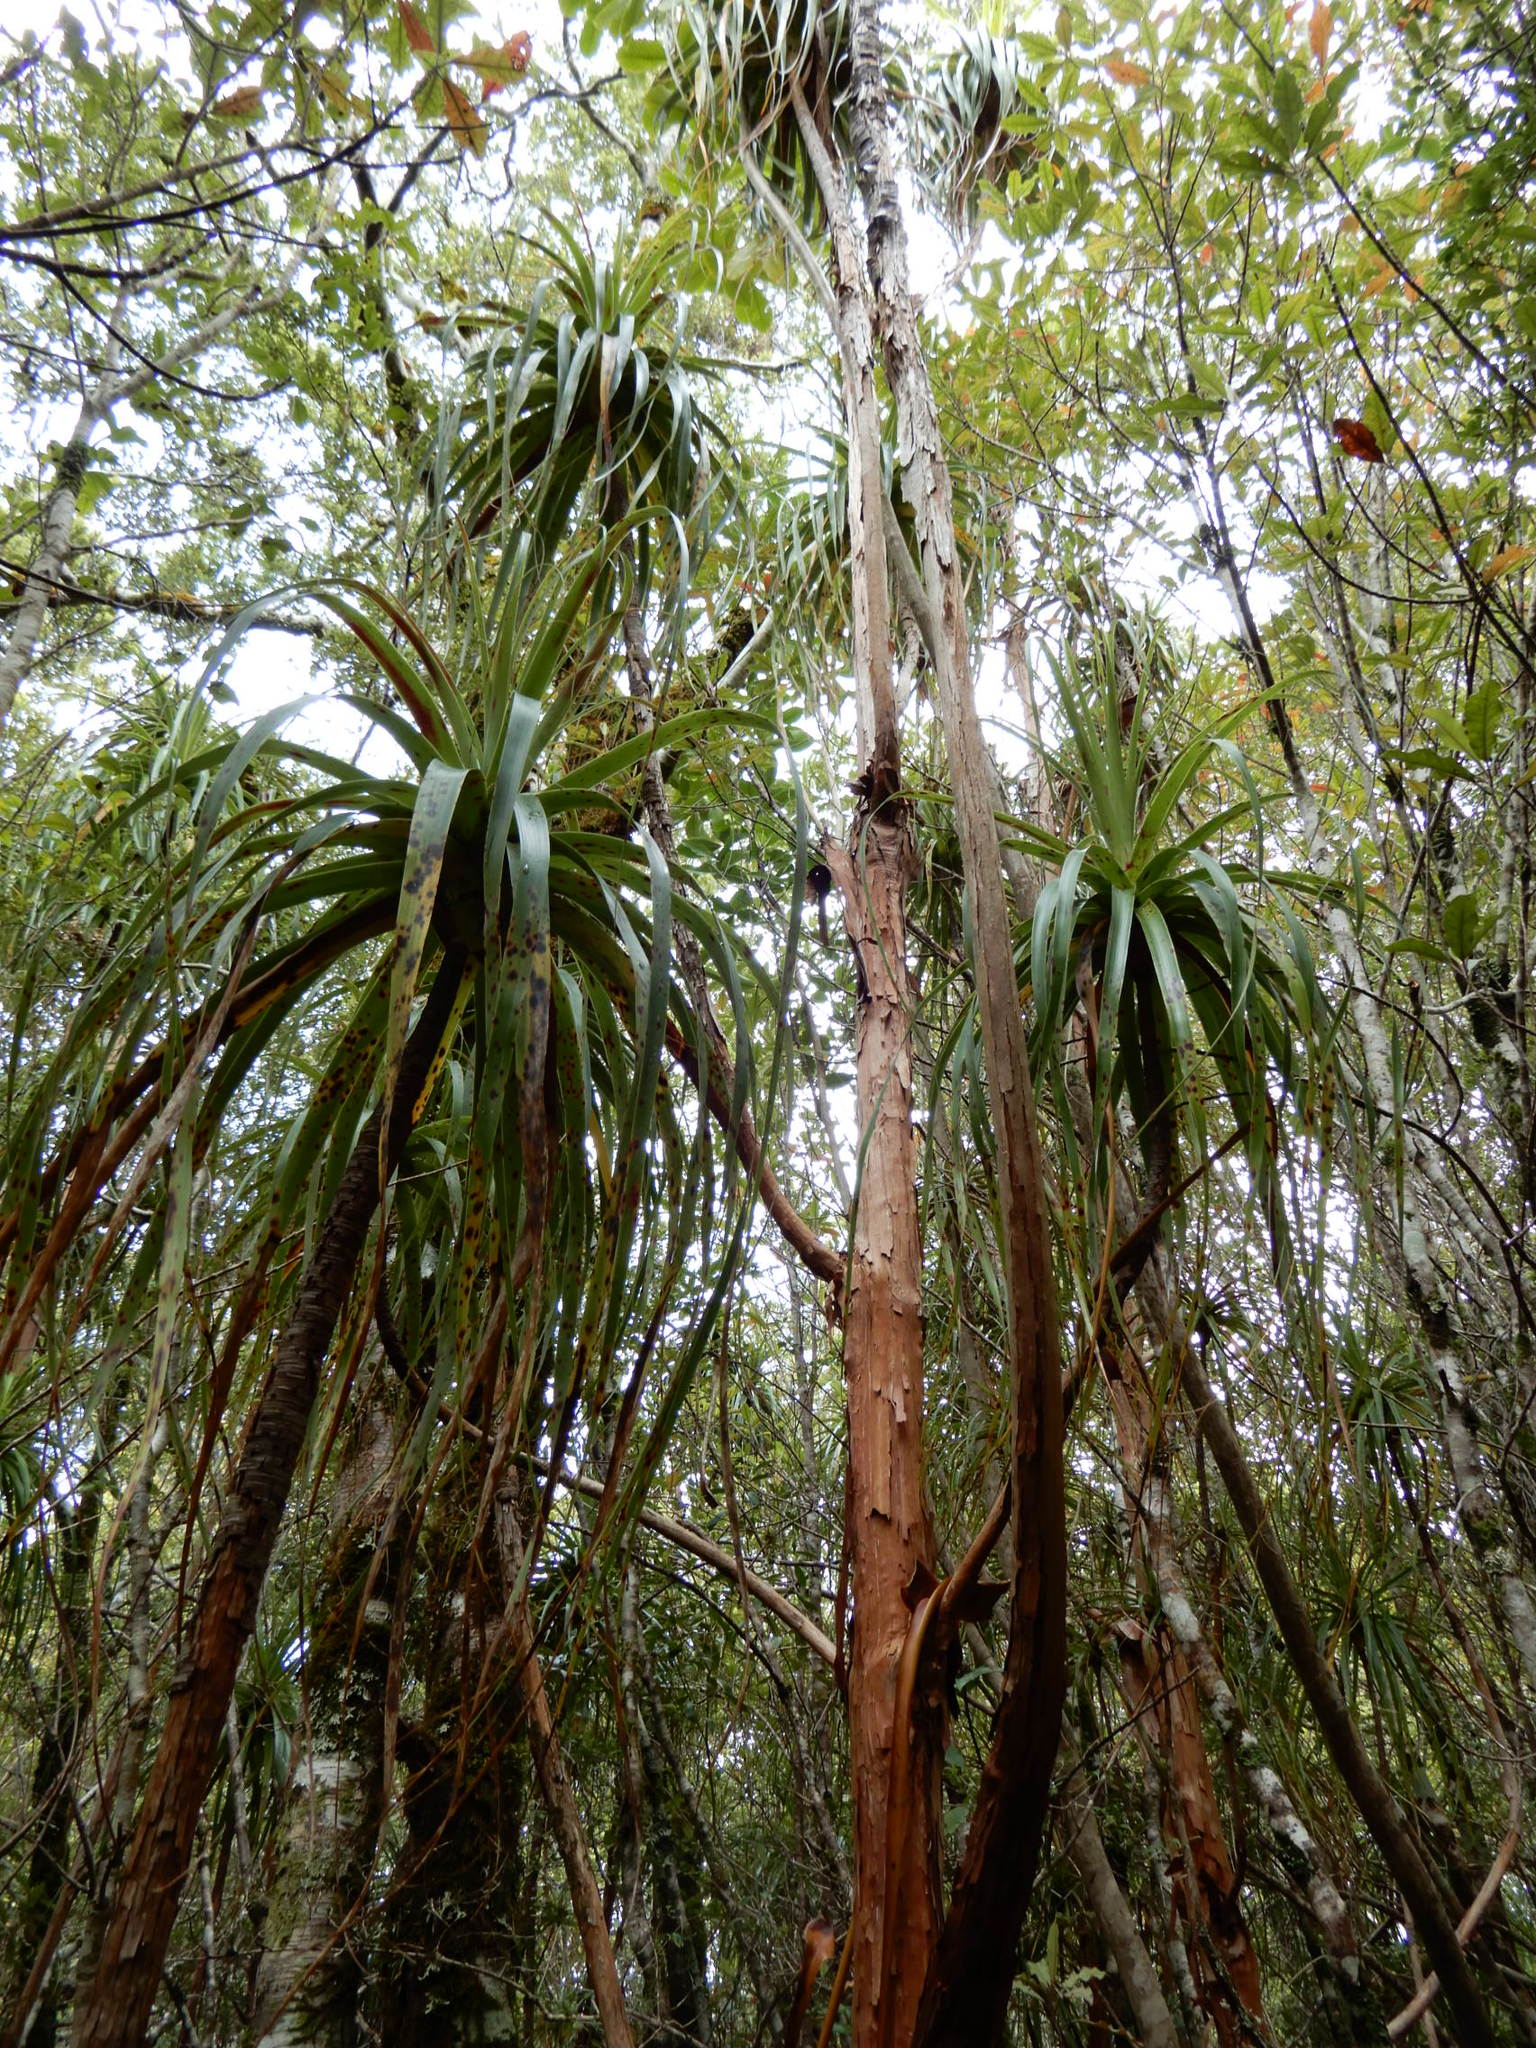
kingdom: Plantae
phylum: Tracheophyta
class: Magnoliopsida
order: Ericales
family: Ericaceae
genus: Dracophyllum
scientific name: Dracophyllum traversii
